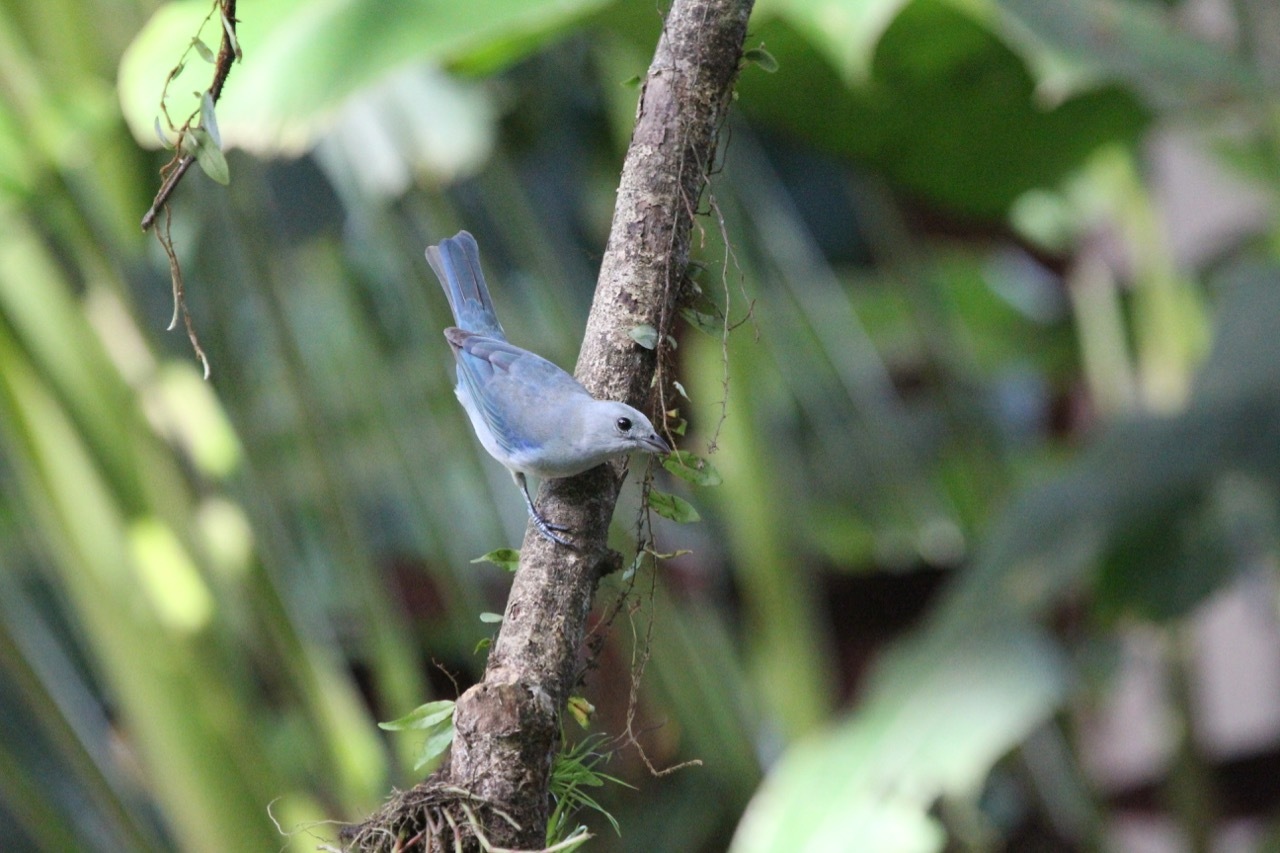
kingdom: Animalia
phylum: Chordata
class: Aves
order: Passeriformes
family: Thraupidae
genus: Thraupis
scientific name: Thraupis episcopus
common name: Blue-grey tanager
